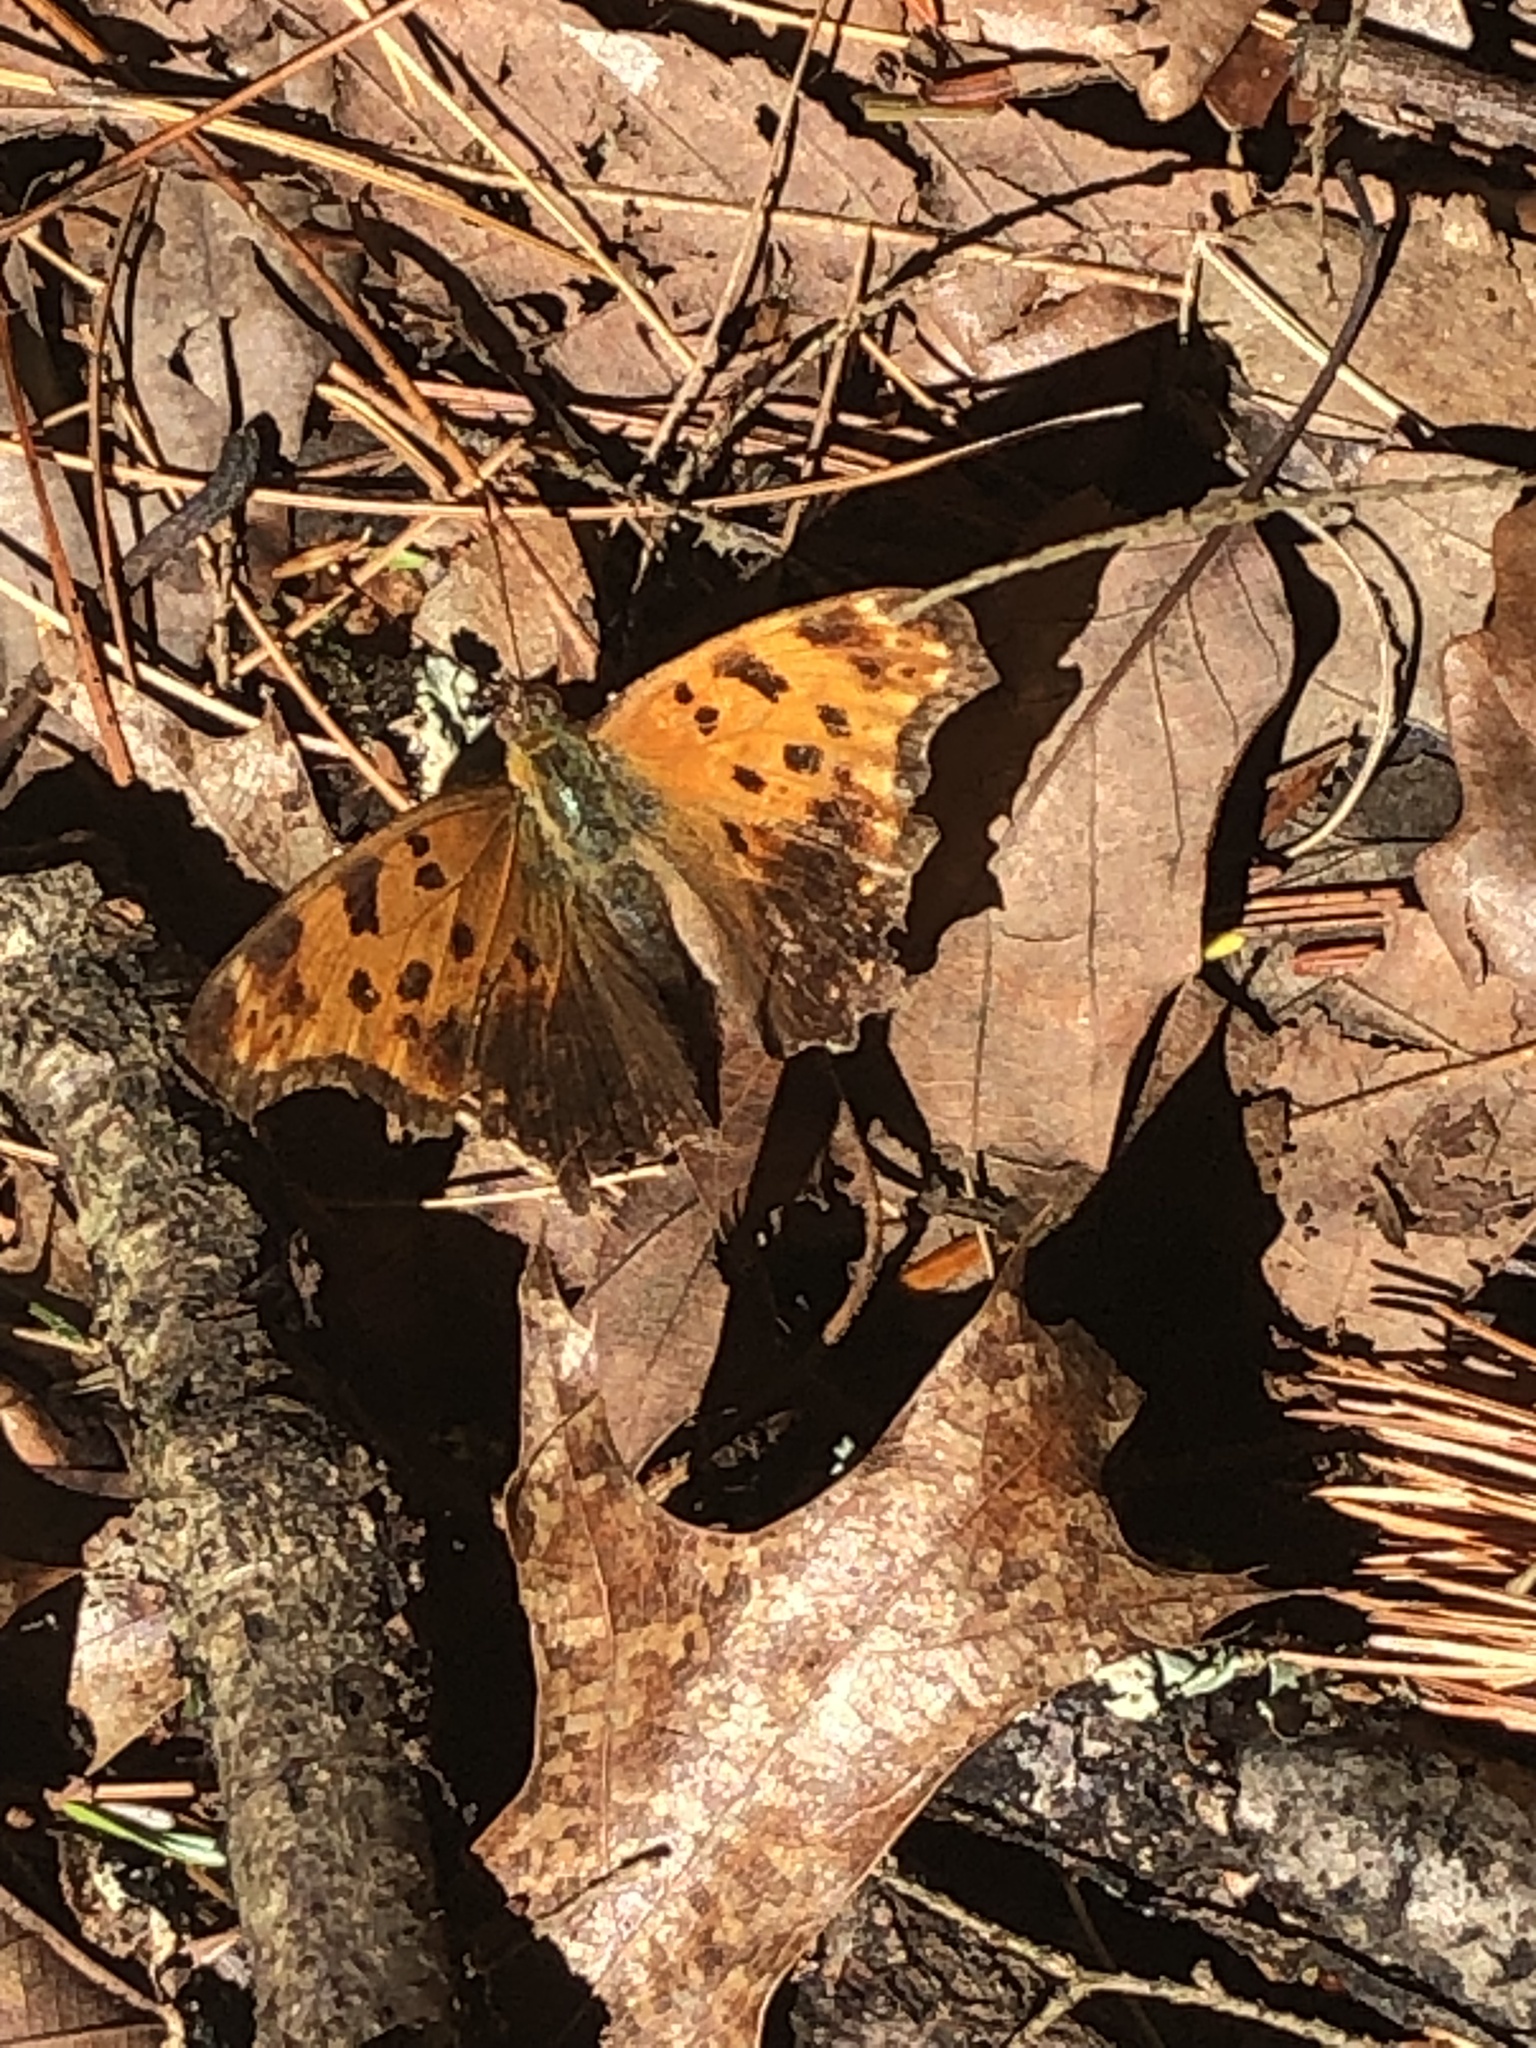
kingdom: Animalia
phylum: Arthropoda
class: Insecta
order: Lepidoptera
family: Nymphalidae
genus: Polygonia
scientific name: Polygonia comma
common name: Eastern comma
